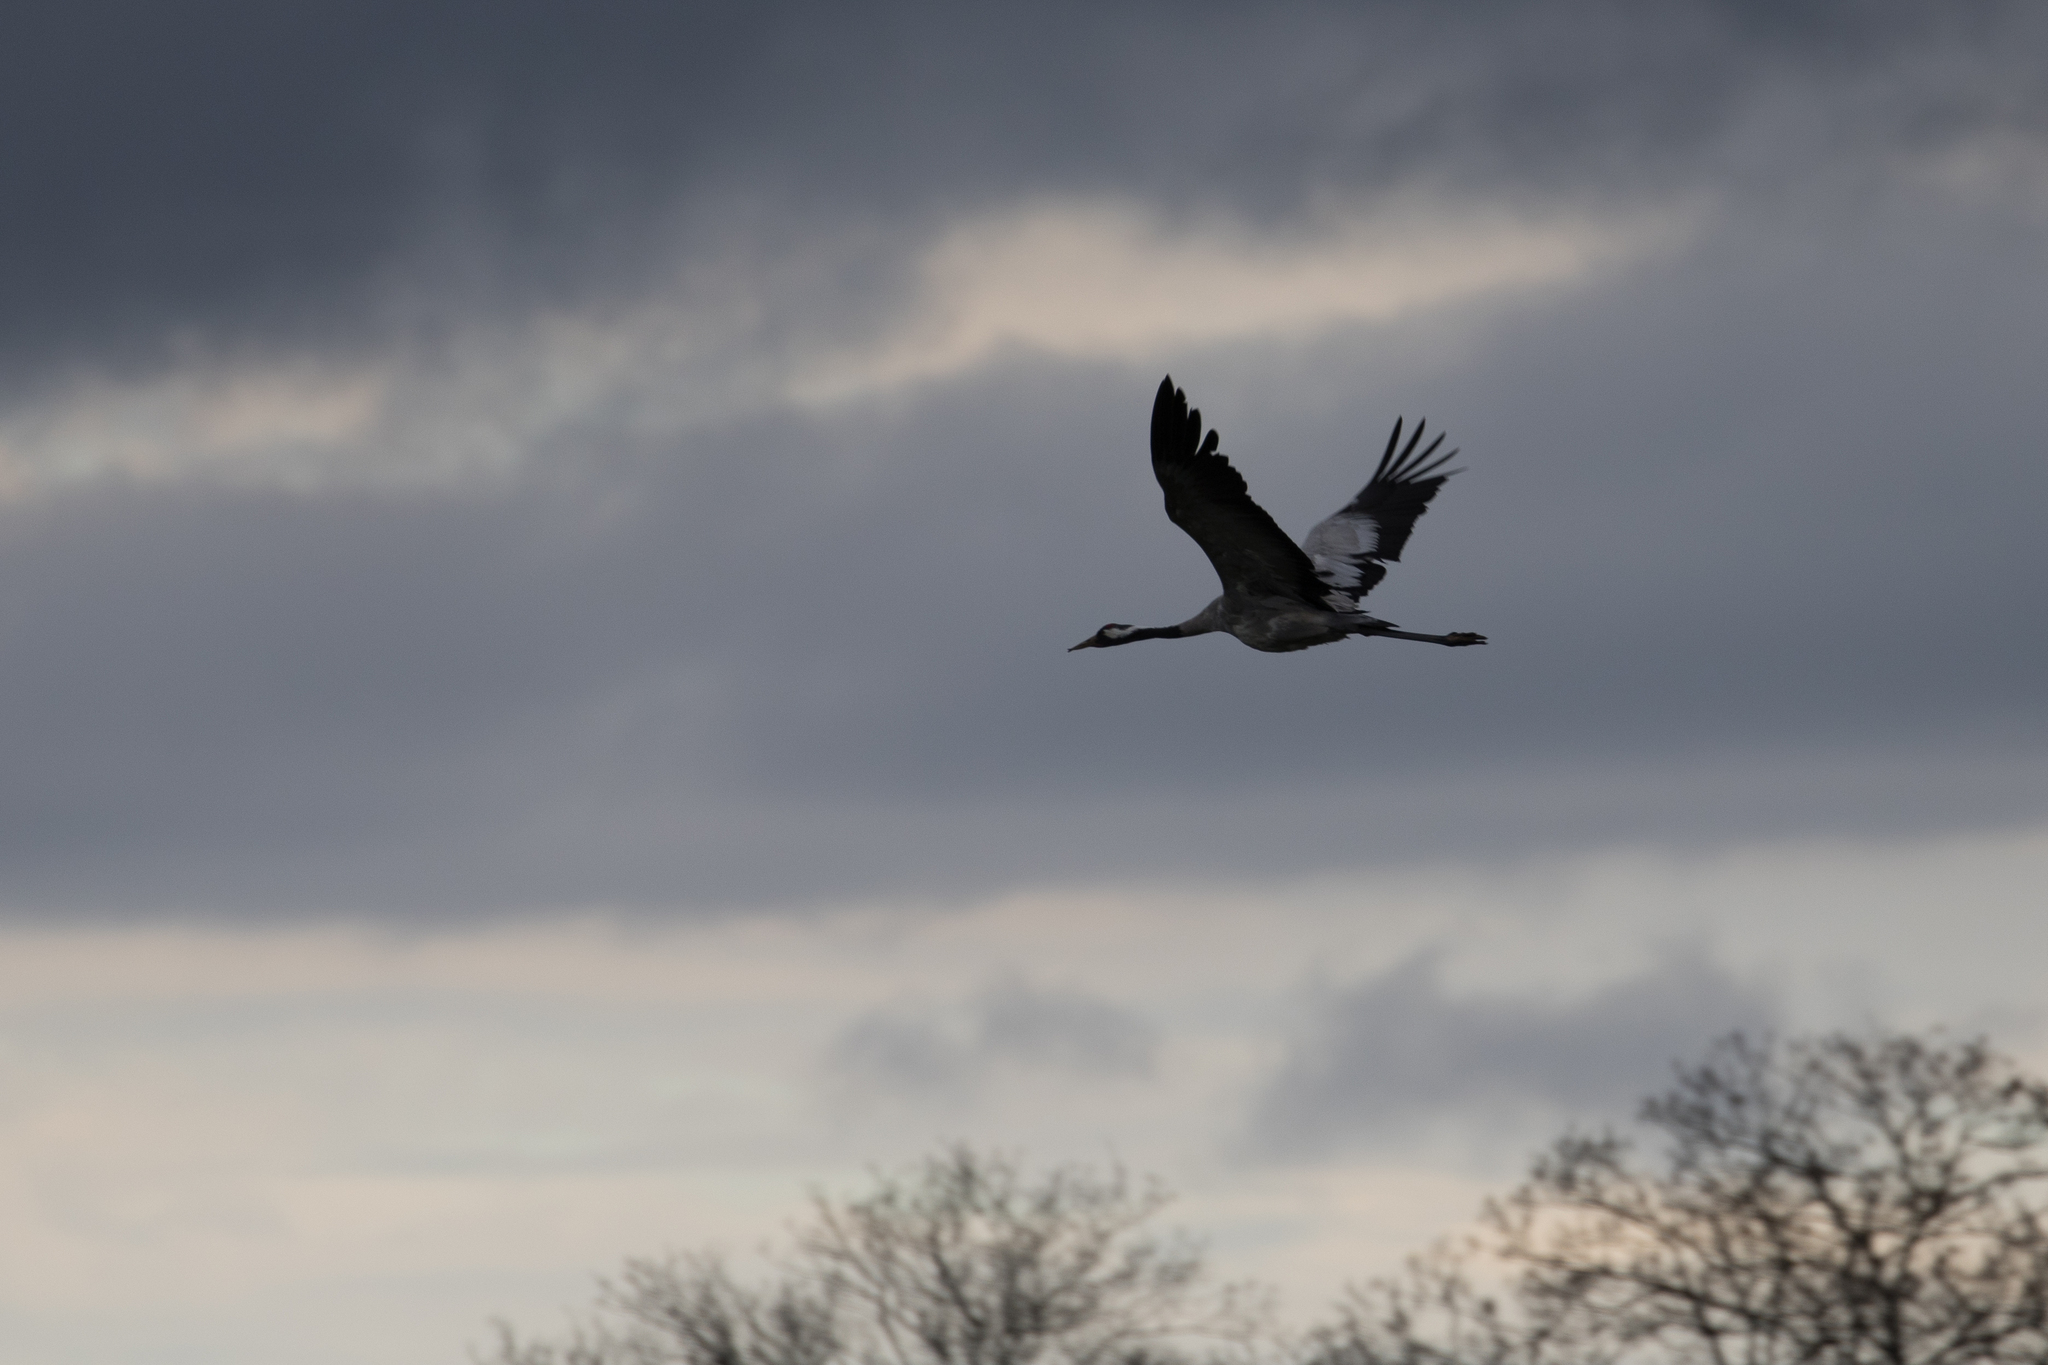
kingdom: Animalia
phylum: Chordata
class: Aves
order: Gruiformes
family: Gruidae
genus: Grus
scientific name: Grus grus
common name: Common crane
